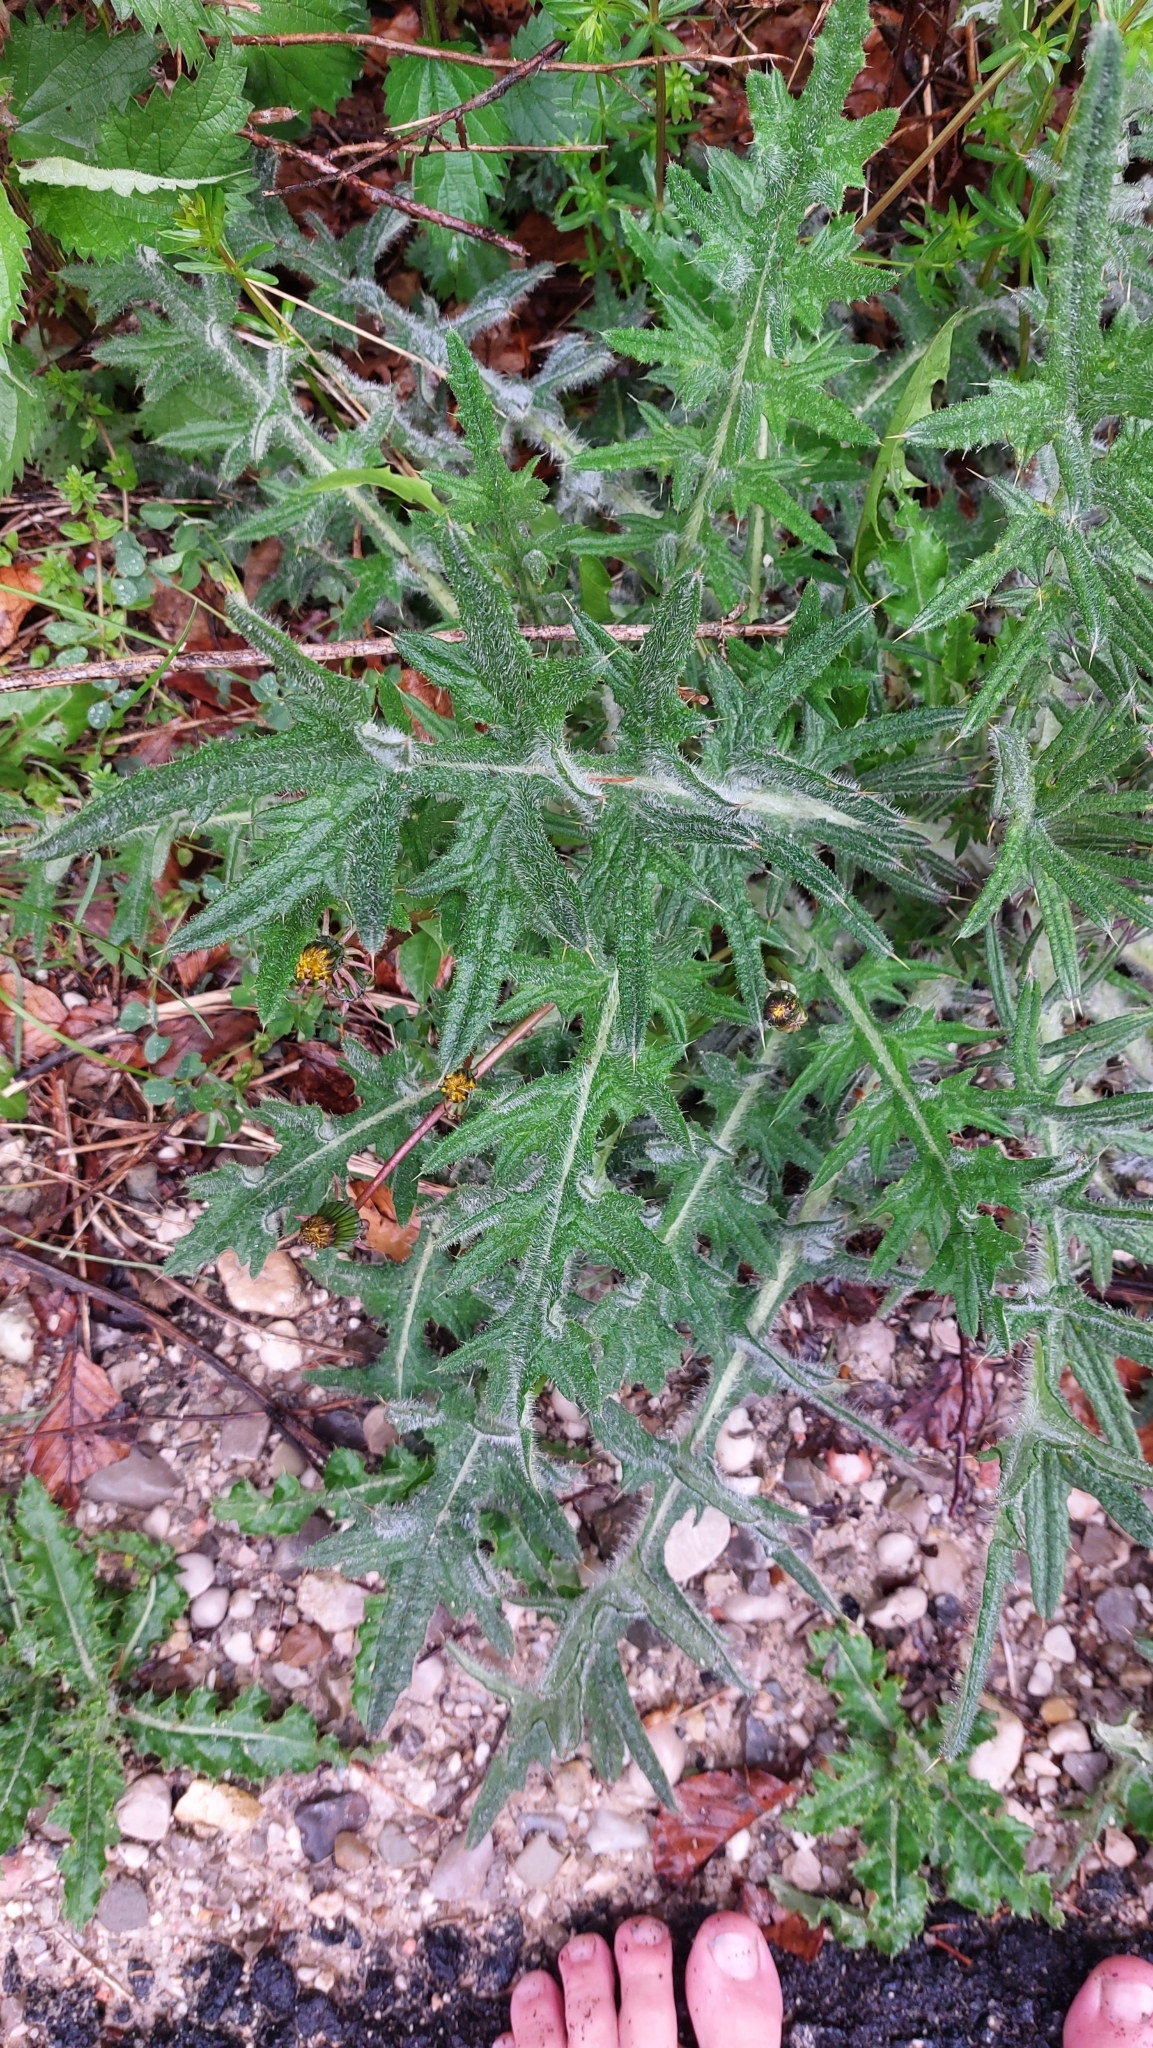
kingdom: Plantae
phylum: Tracheophyta
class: Magnoliopsida
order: Asterales
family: Asteraceae
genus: Cirsium
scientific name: Cirsium vulgare
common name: Bull thistle
